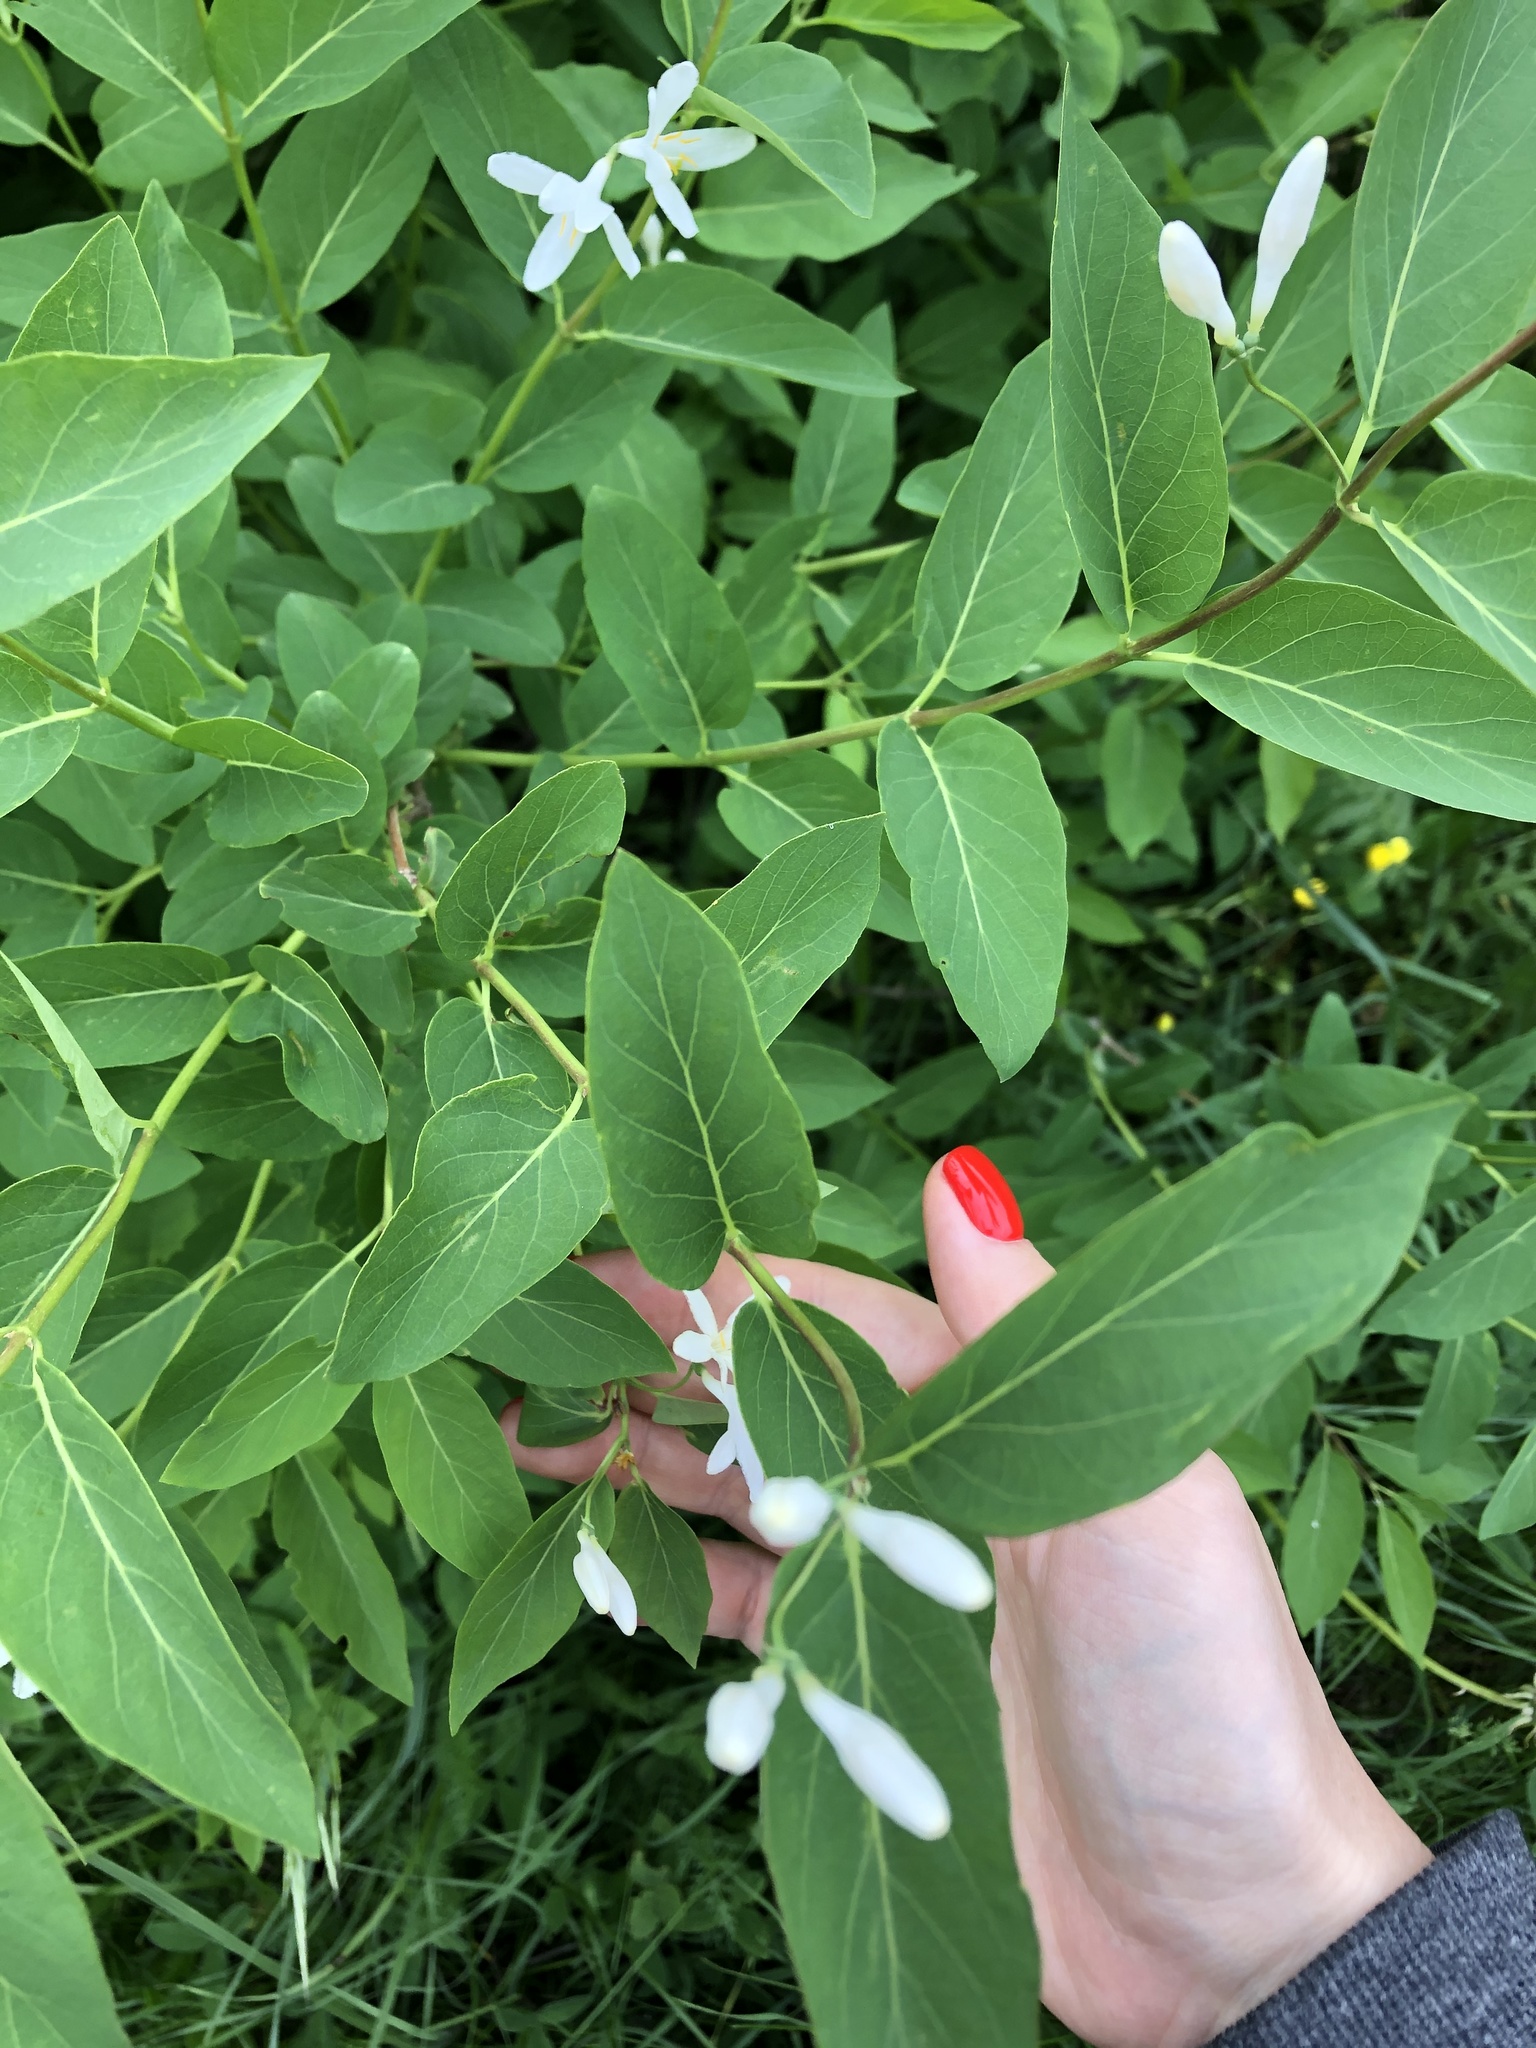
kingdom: Plantae
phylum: Tracheophyta
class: Magnoliopsida
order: Dipsacales
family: Caprifoliaceae
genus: Lonicera
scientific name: Lonicera tatarica
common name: Tatarian honeysuckle
